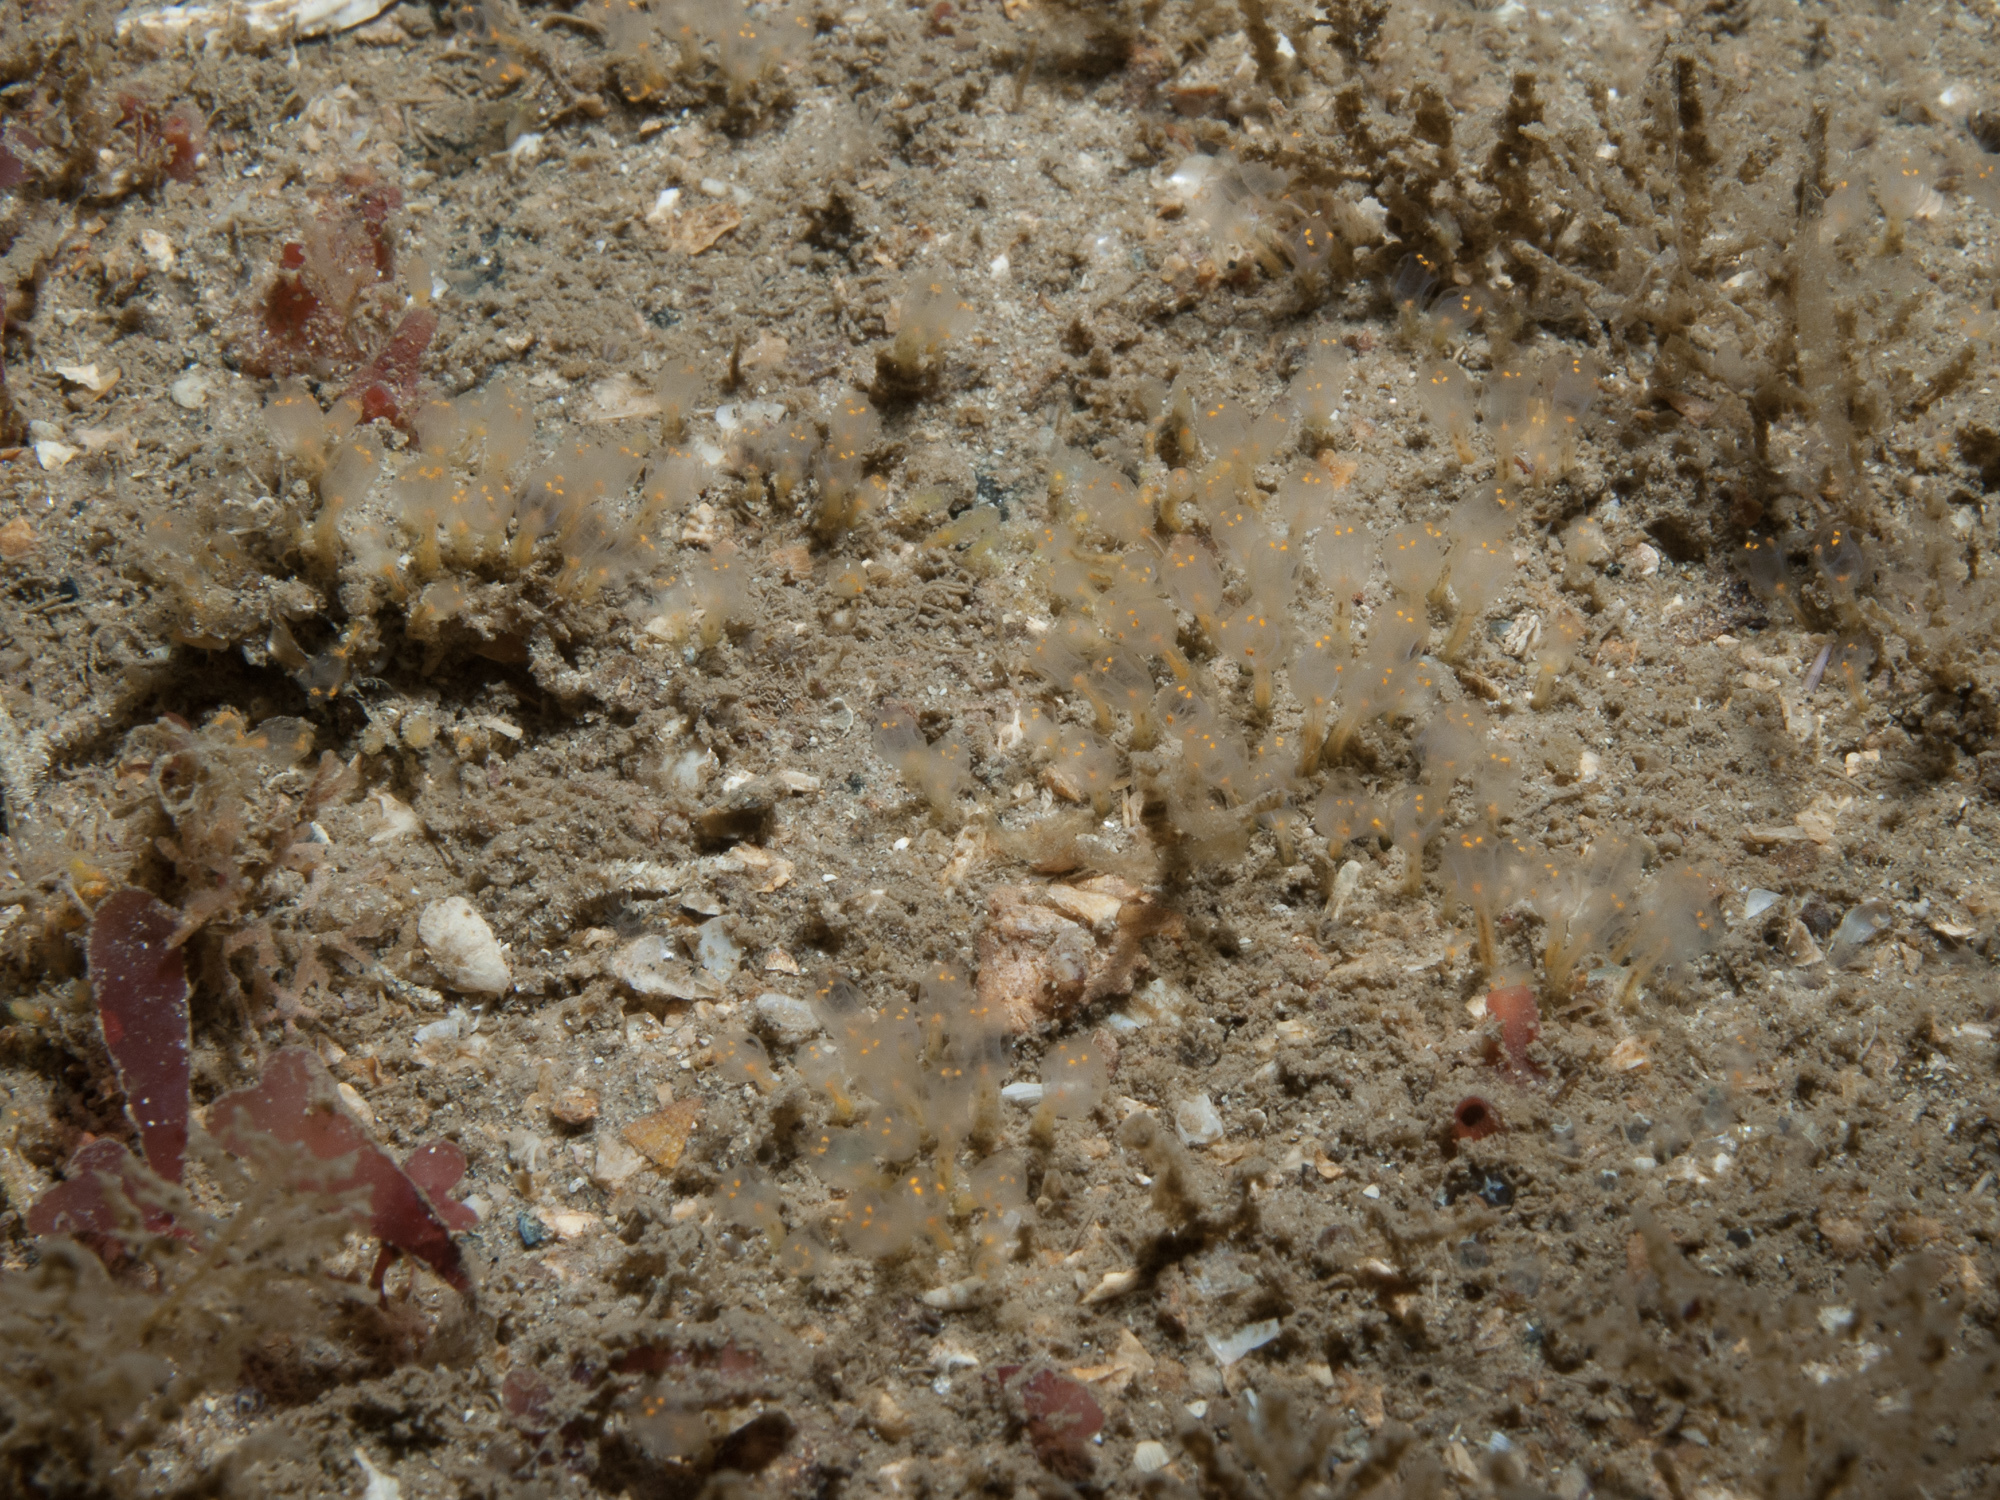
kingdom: Animalia
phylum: Chordata
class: Ascidiacea
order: Aplousobranchia
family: Clavelinidae
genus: Pycnoclavella
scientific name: Pycnoclavella aurilucens
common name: Orange lights seasquirt
